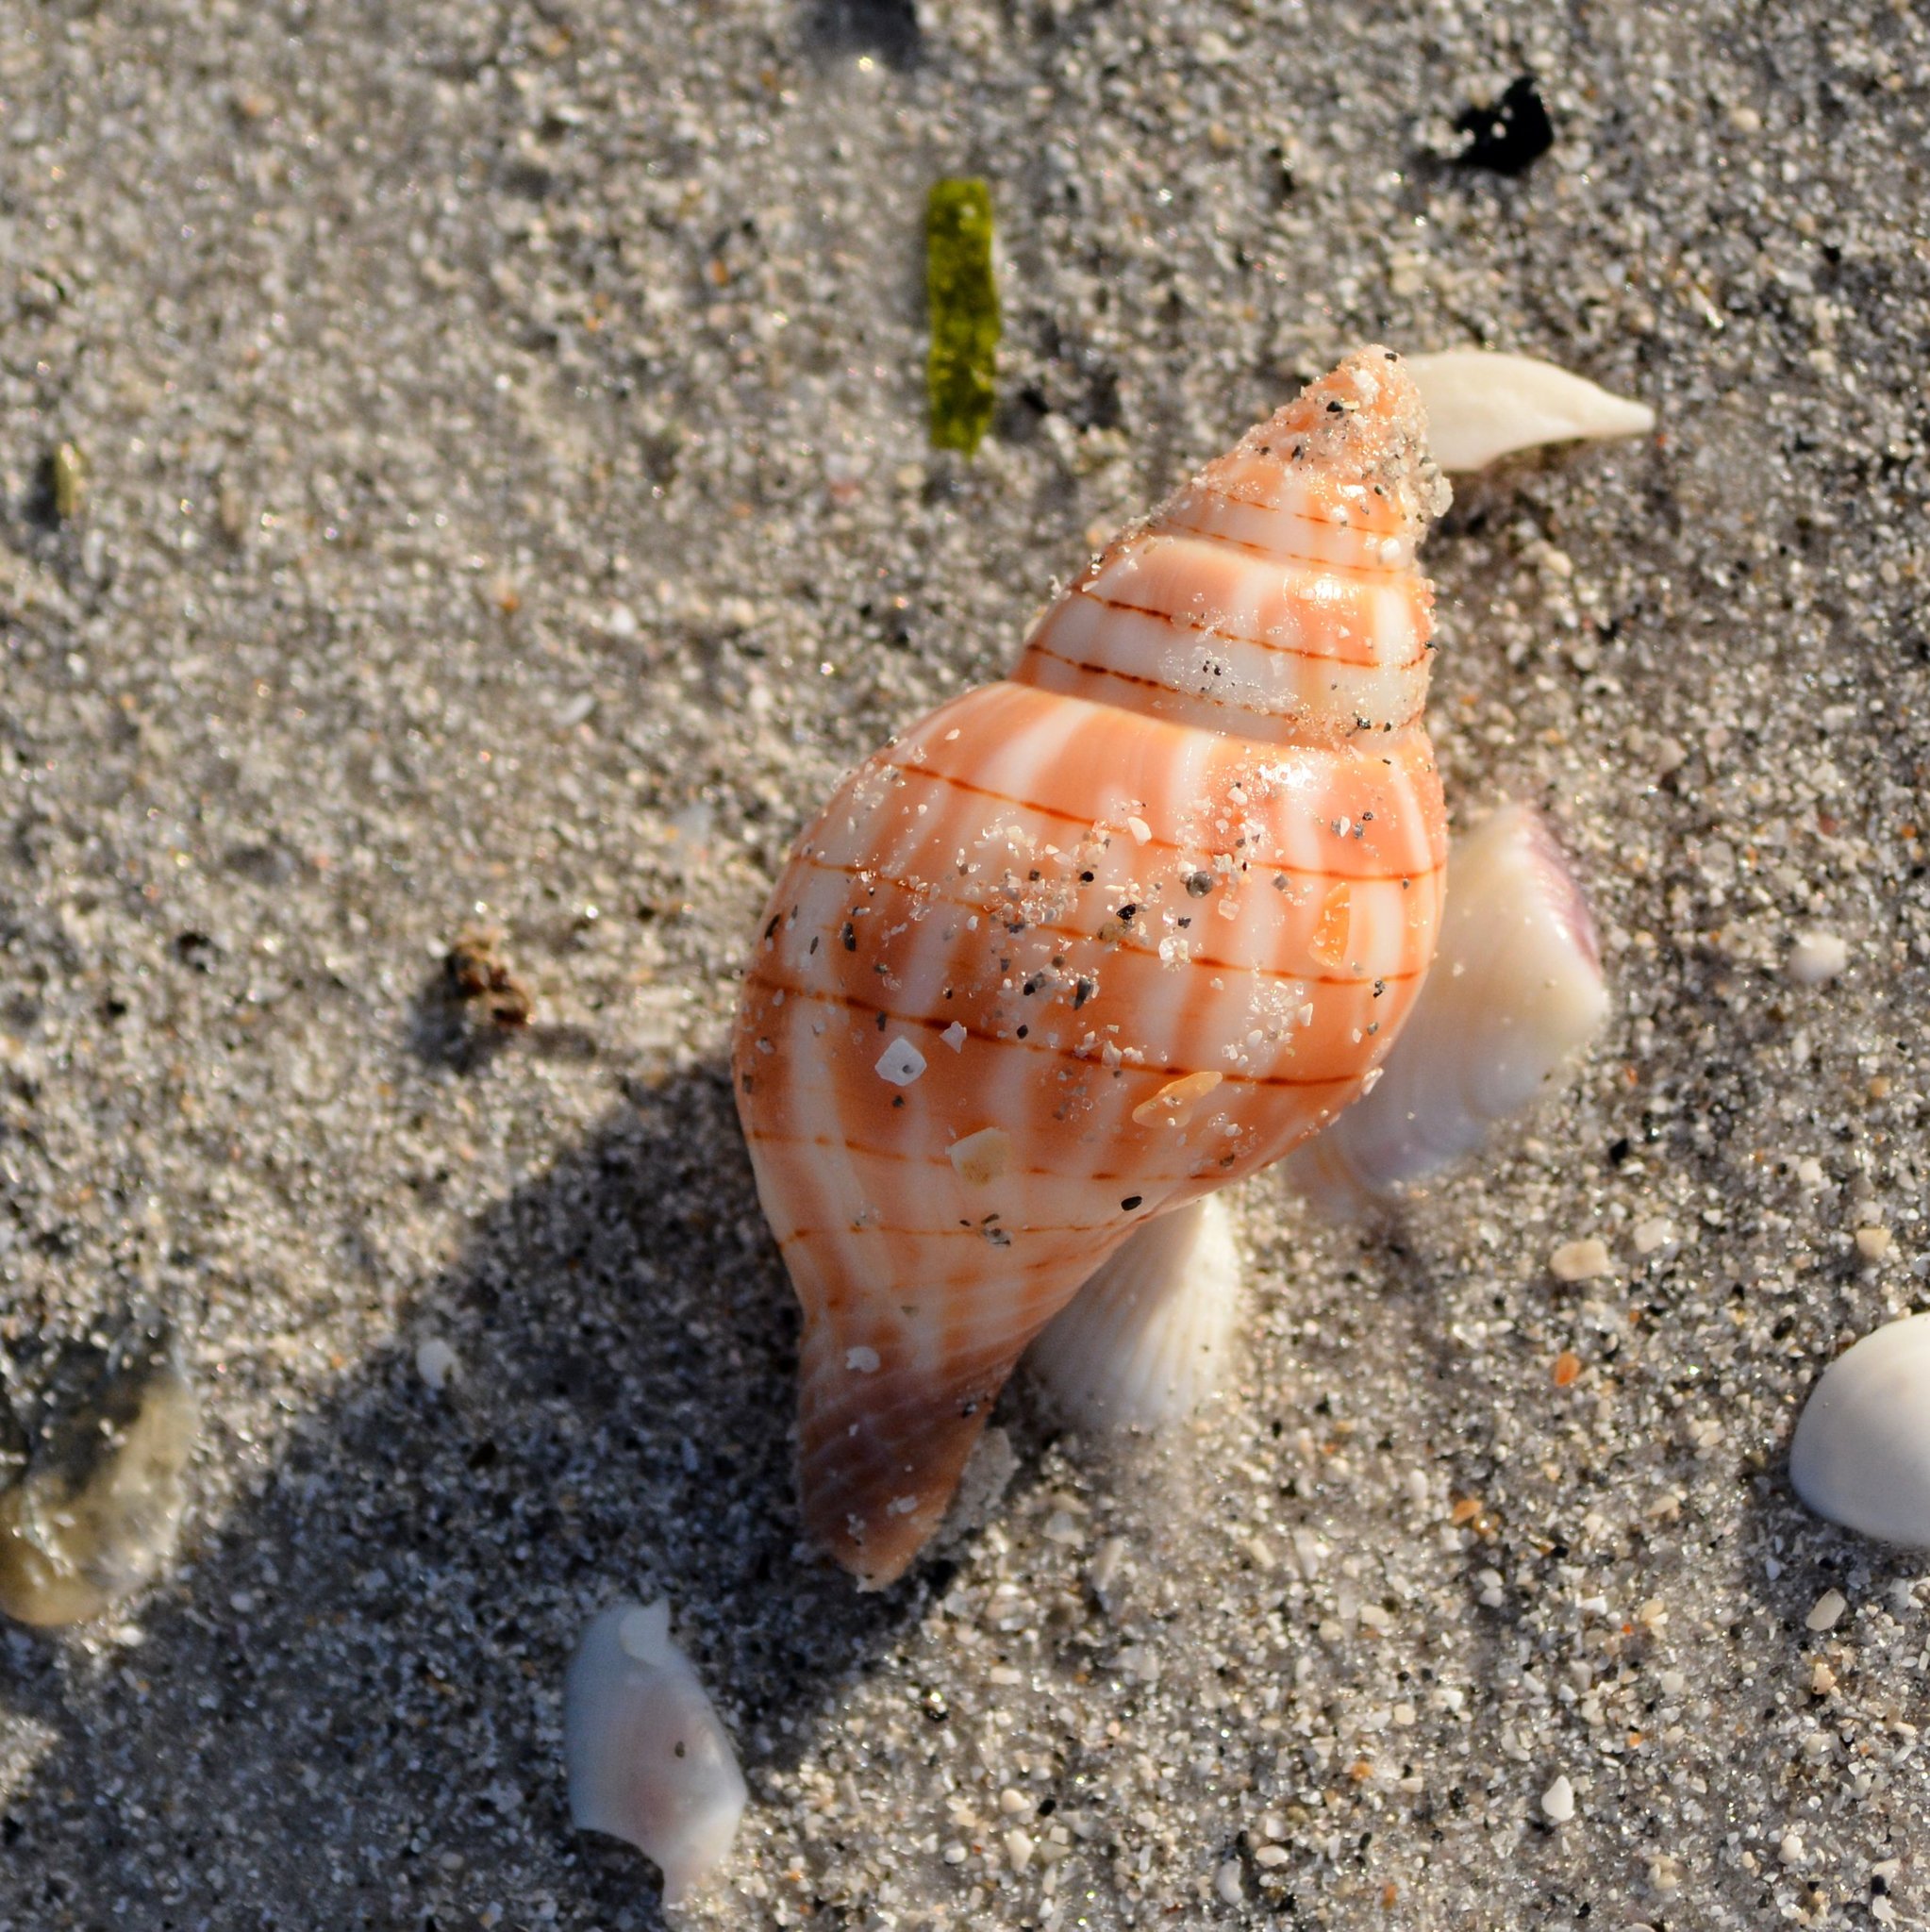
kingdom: Animalia
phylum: Mollusca
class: Gastropoda
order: Neogastropoda
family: Fasciolariidae
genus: Cinctura
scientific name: Cinctura hunteria
